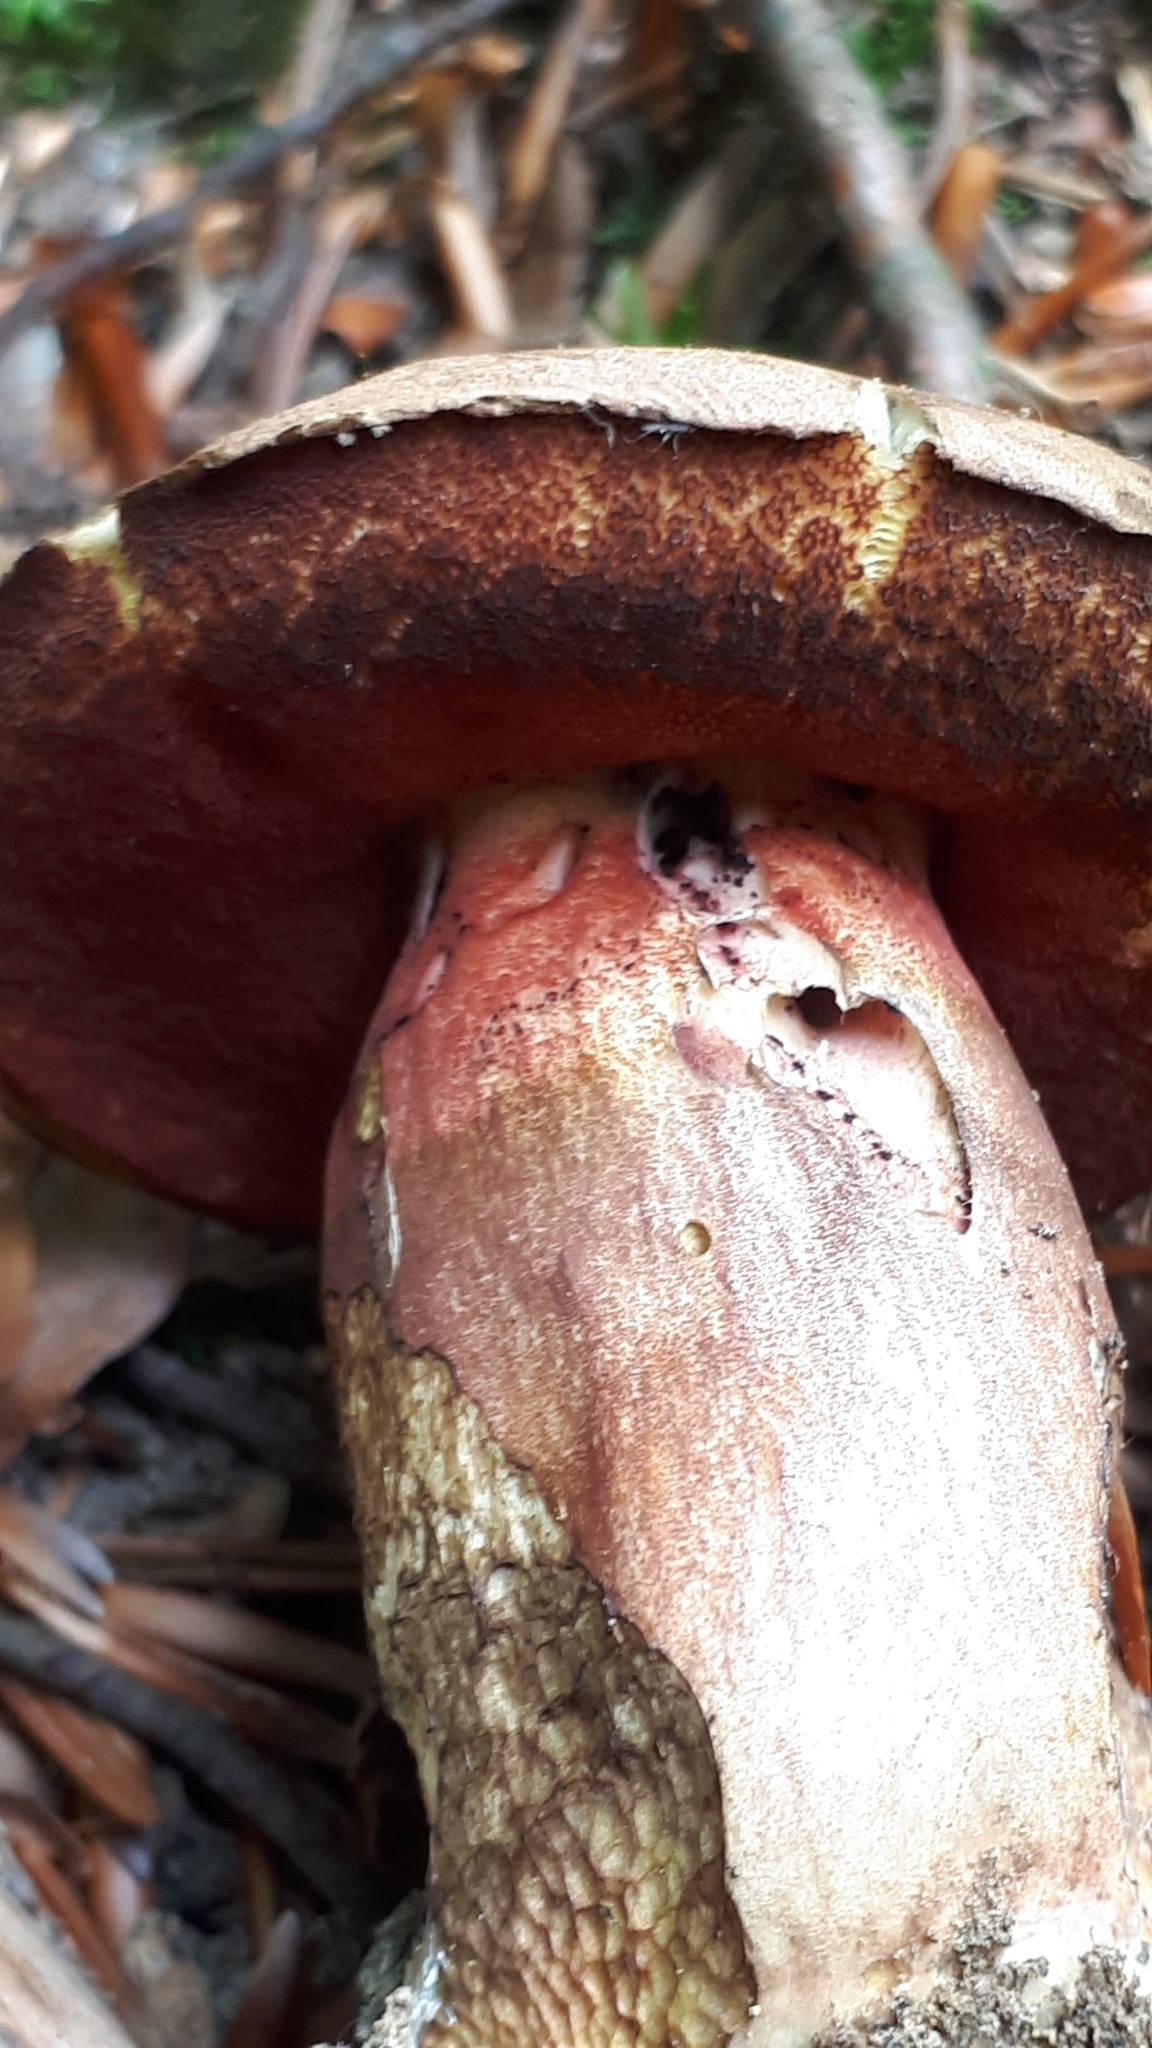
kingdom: Fungi
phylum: Basidiomycota
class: Agaricomycetes
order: Boletales
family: Boletaceae
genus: Neoboletus
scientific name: Neoboletus erythropus
